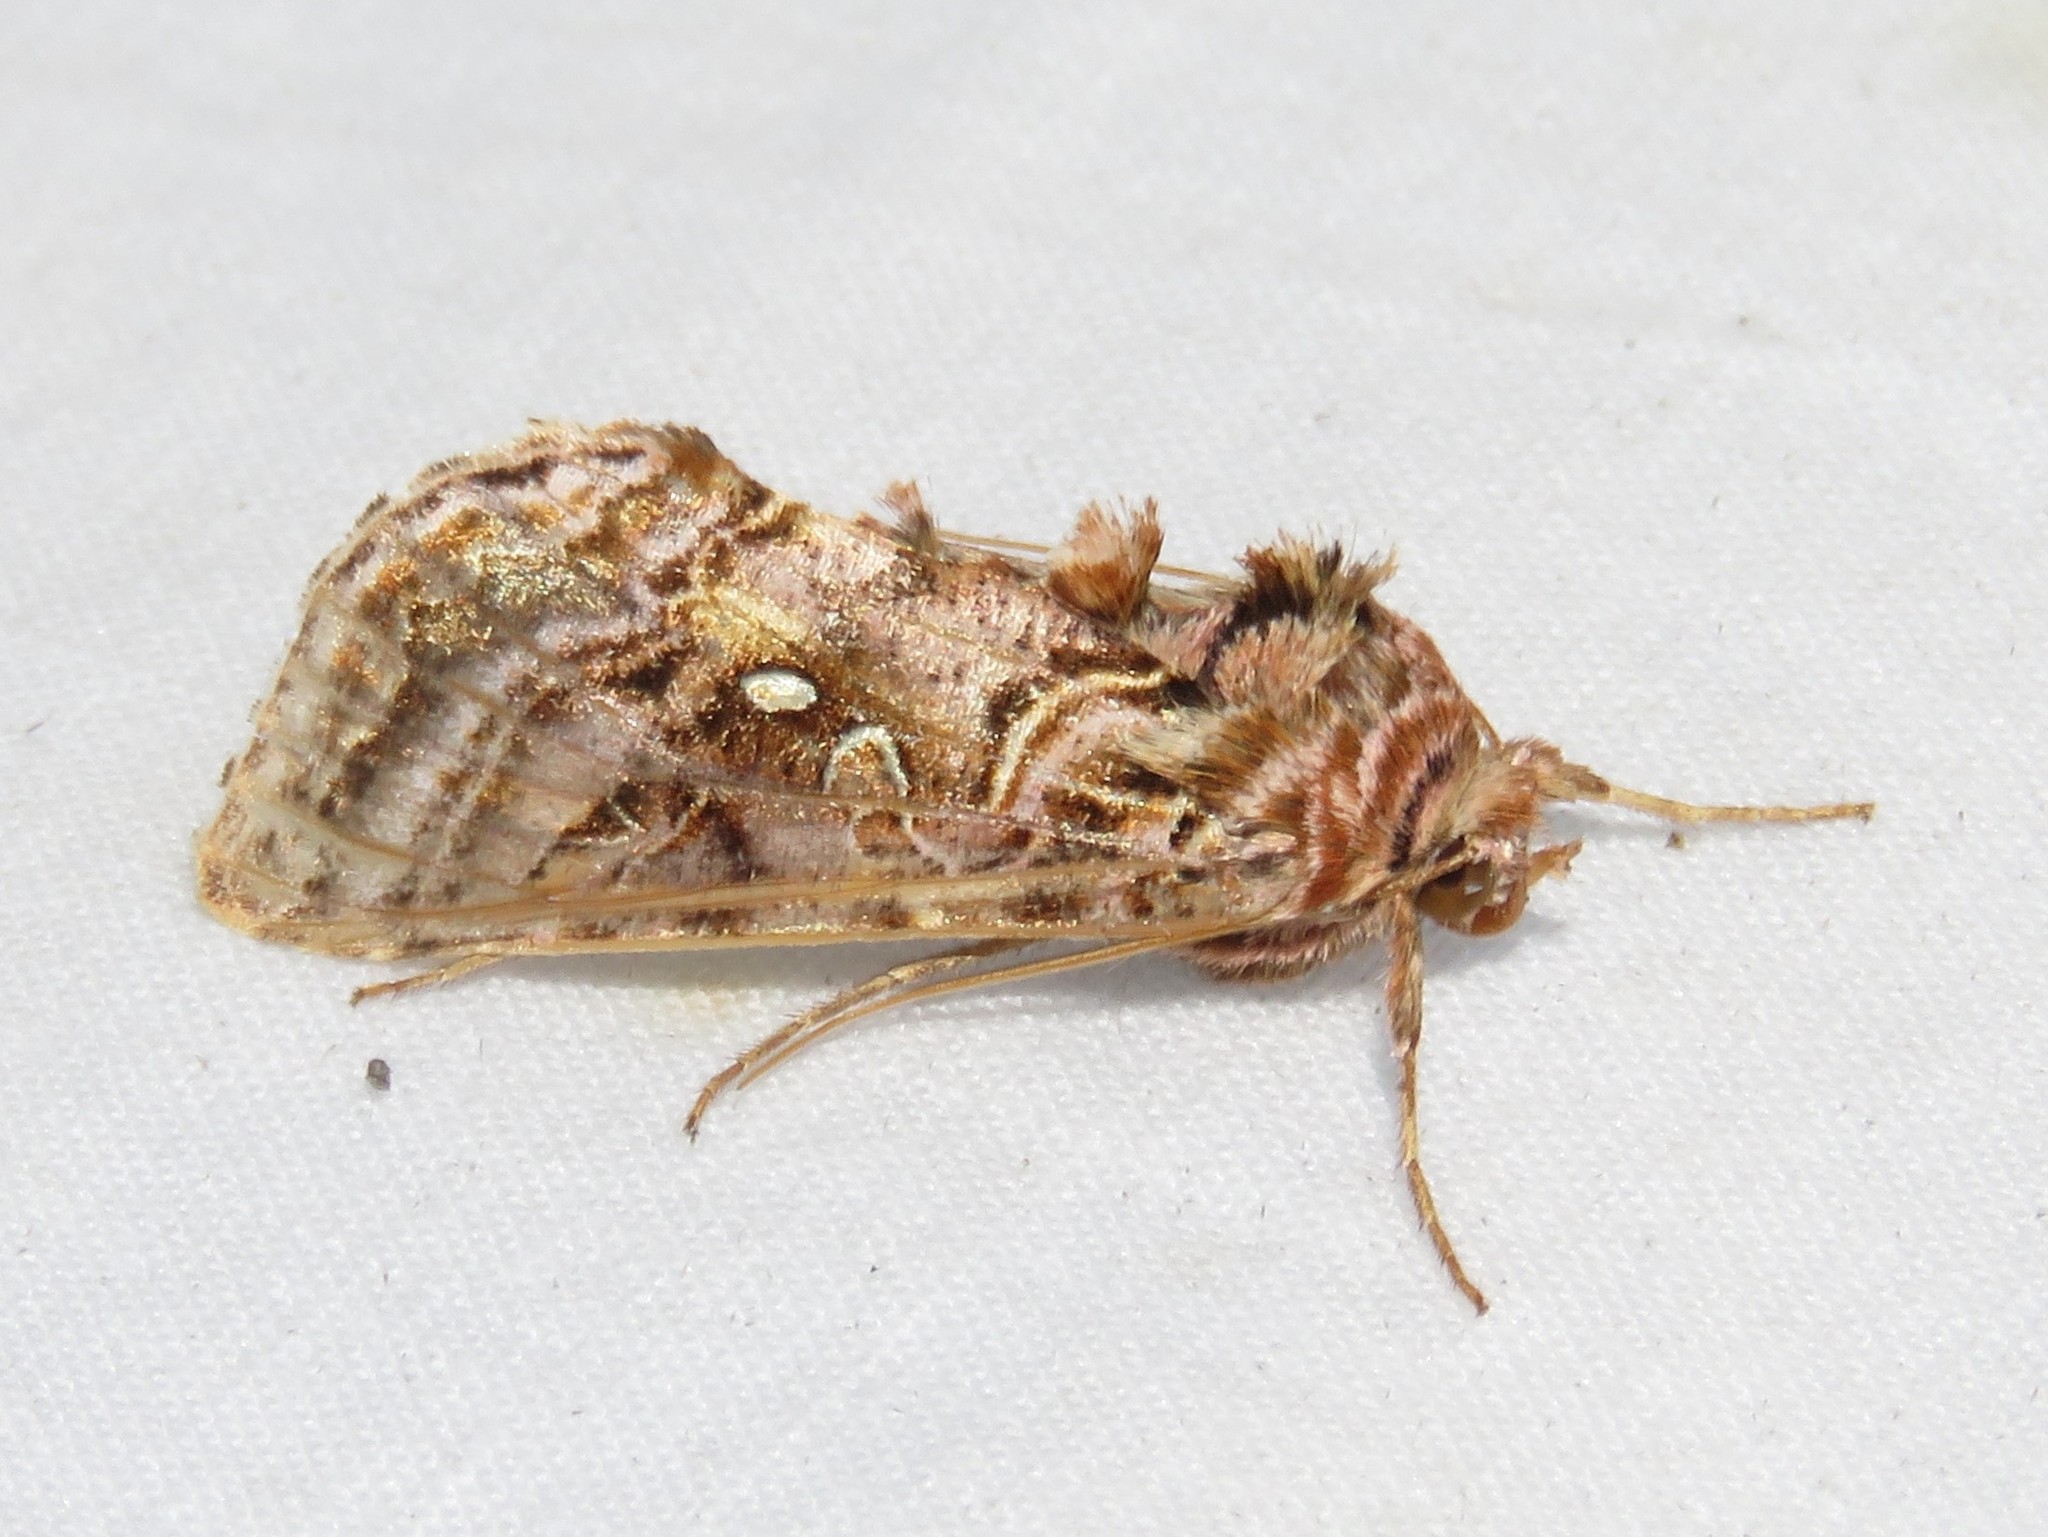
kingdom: Animalia
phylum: Arthropoda
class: Insecta
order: Lepidoptera
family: Noctuidae
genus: Autographa
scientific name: Autographa mappa
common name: Wavy chestnut y moth
